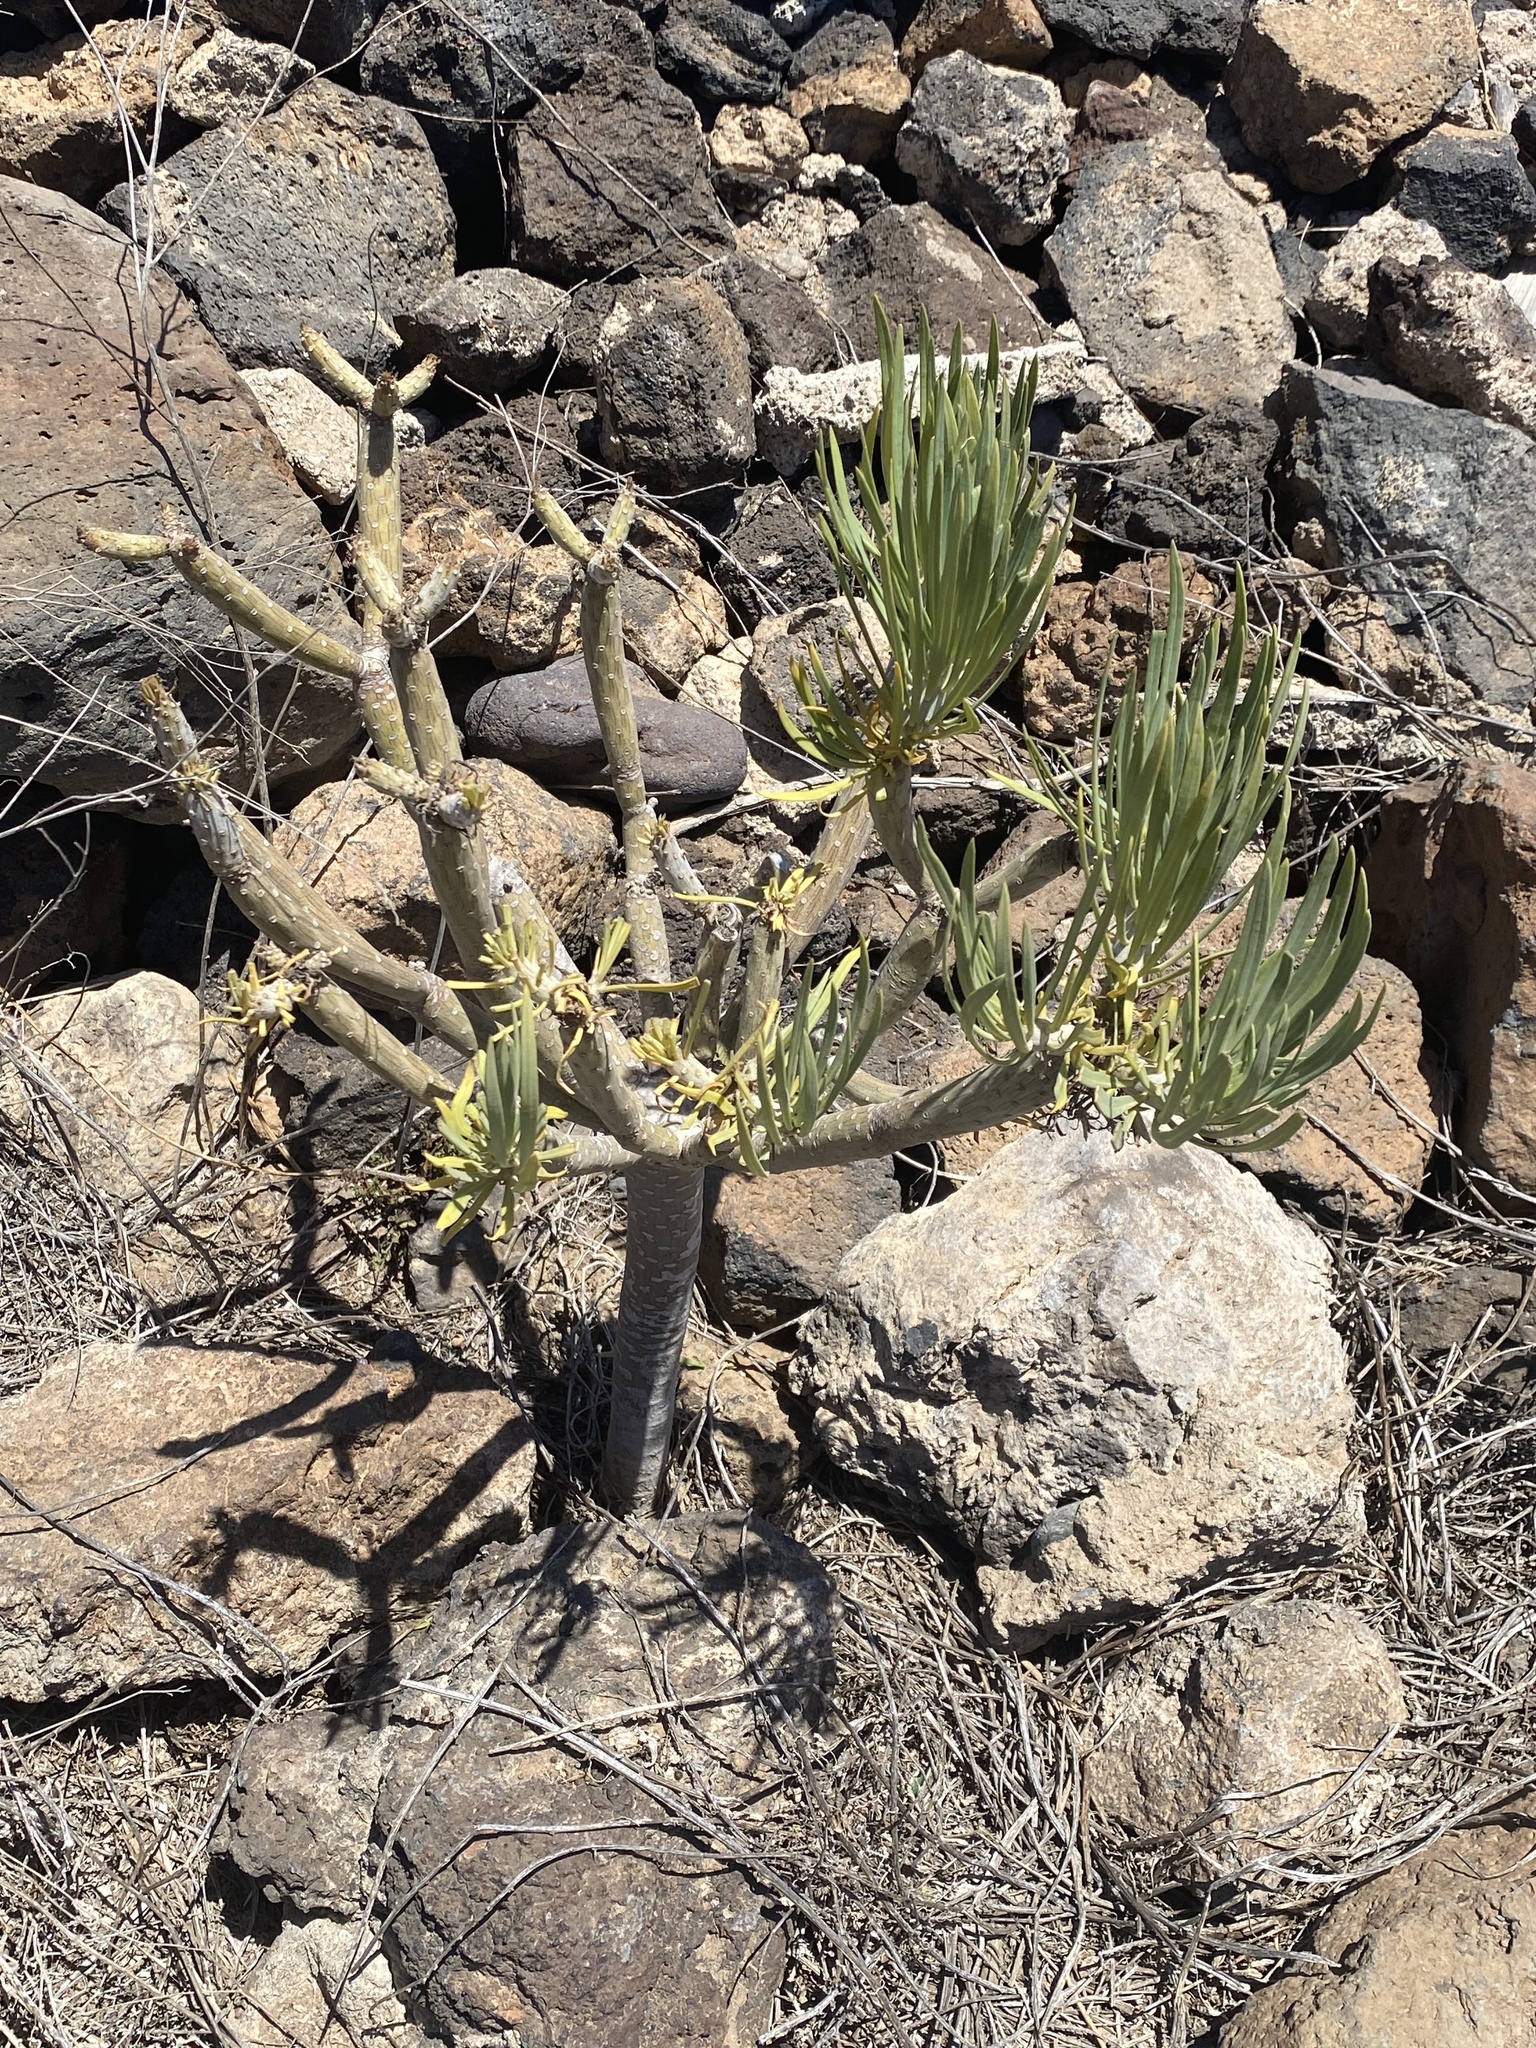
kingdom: Plantae
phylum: Tracheophyta
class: Magnoliopsida
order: Asterales
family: Asteraceae
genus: Kleinia
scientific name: Kleinia neriifolia
